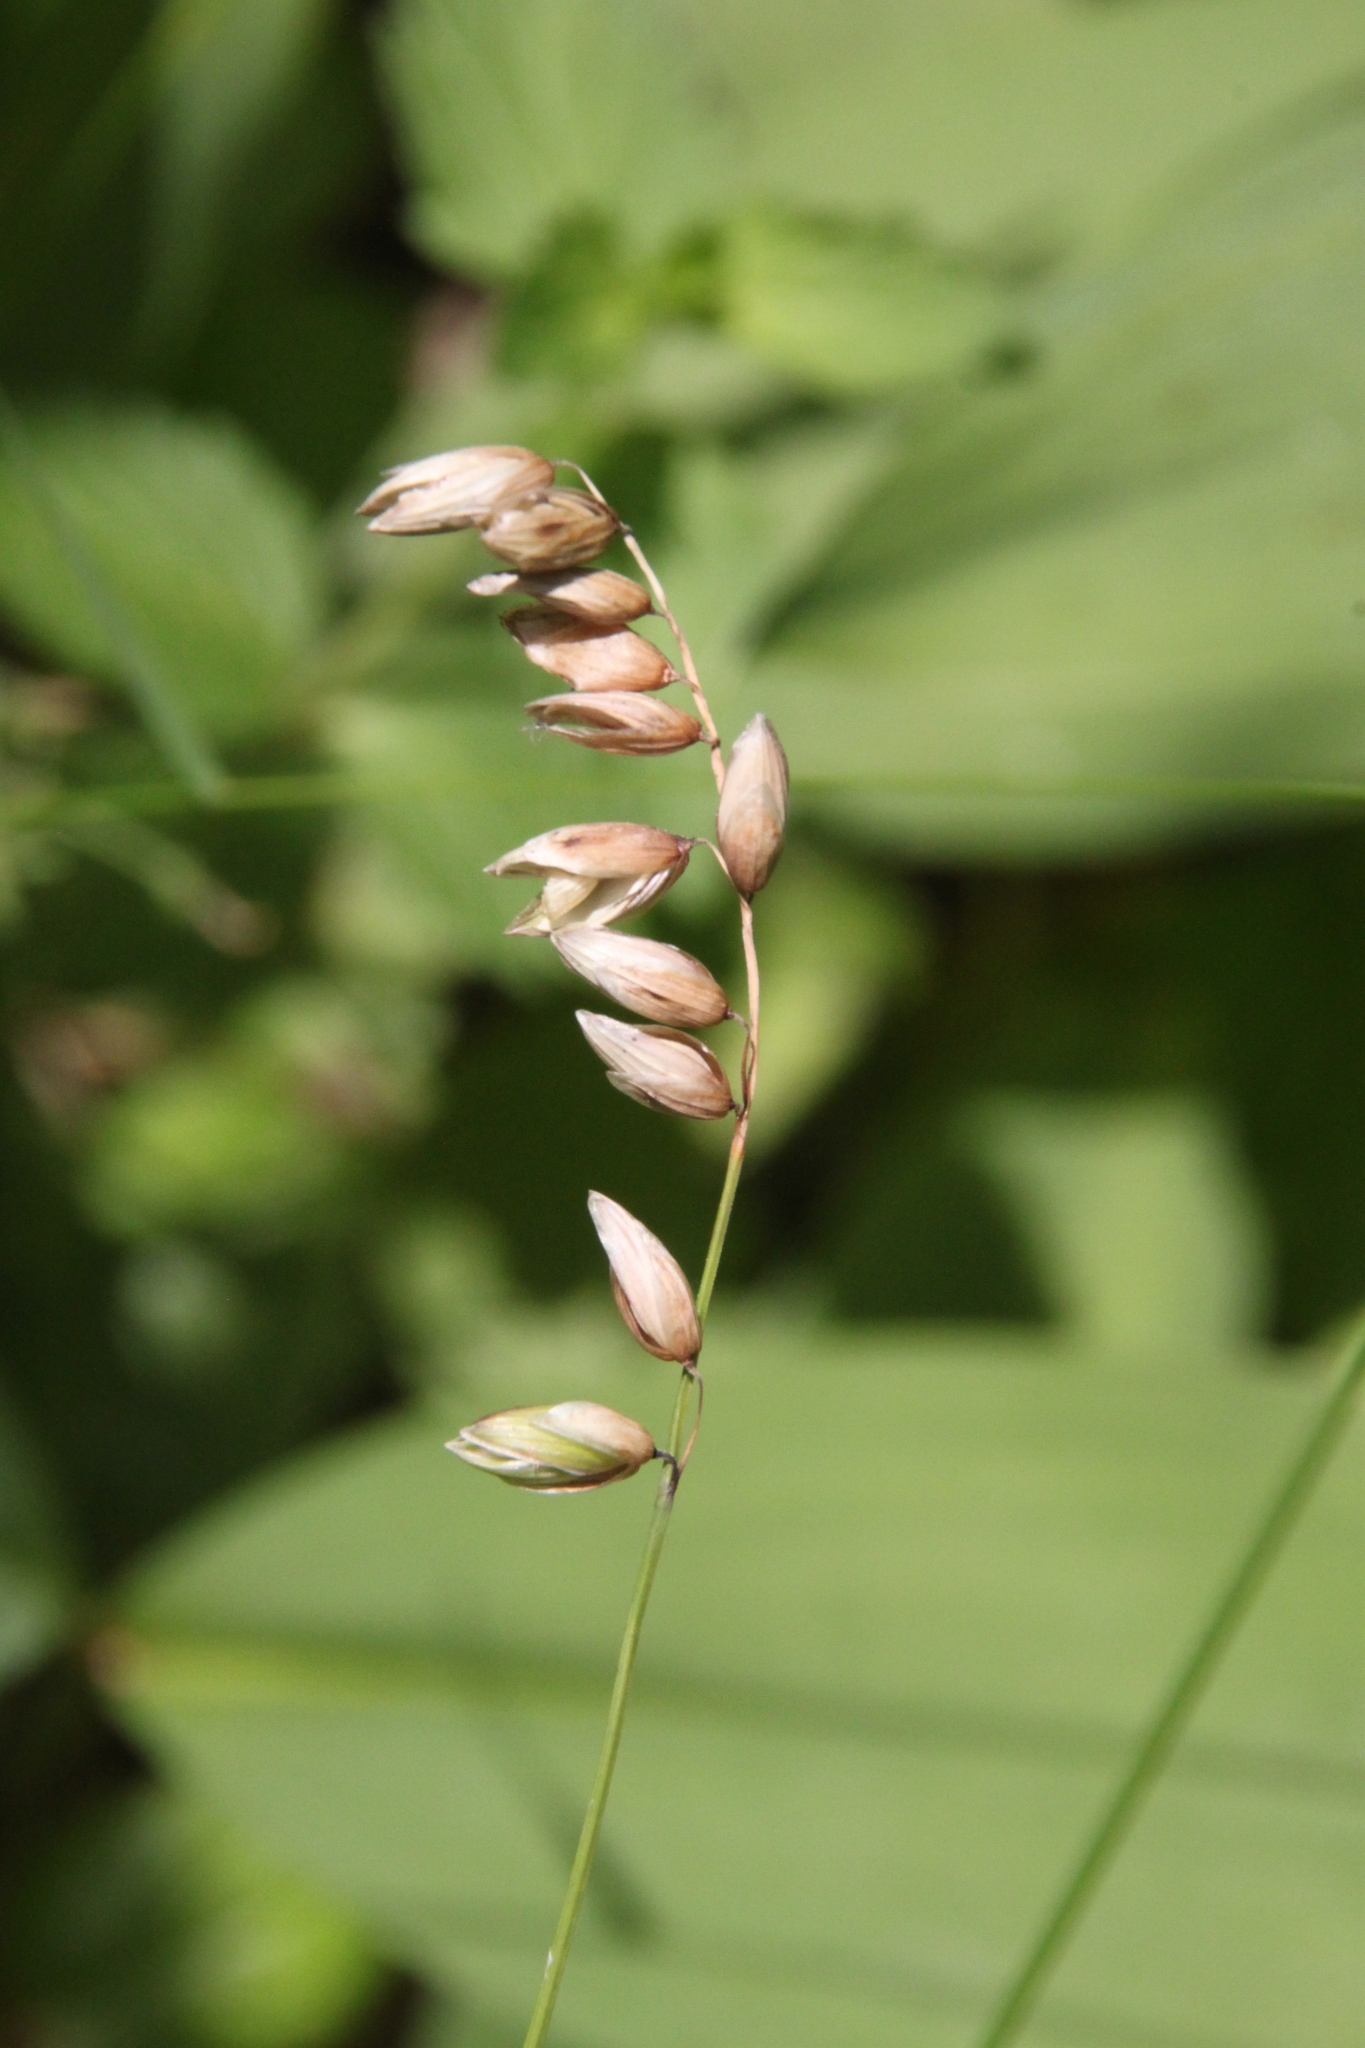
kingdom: Plantae
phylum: Tracheophyta
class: Liliopsida
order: Poales
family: Poaceae
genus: Melica
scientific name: Melica nutans
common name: Mountain melick
